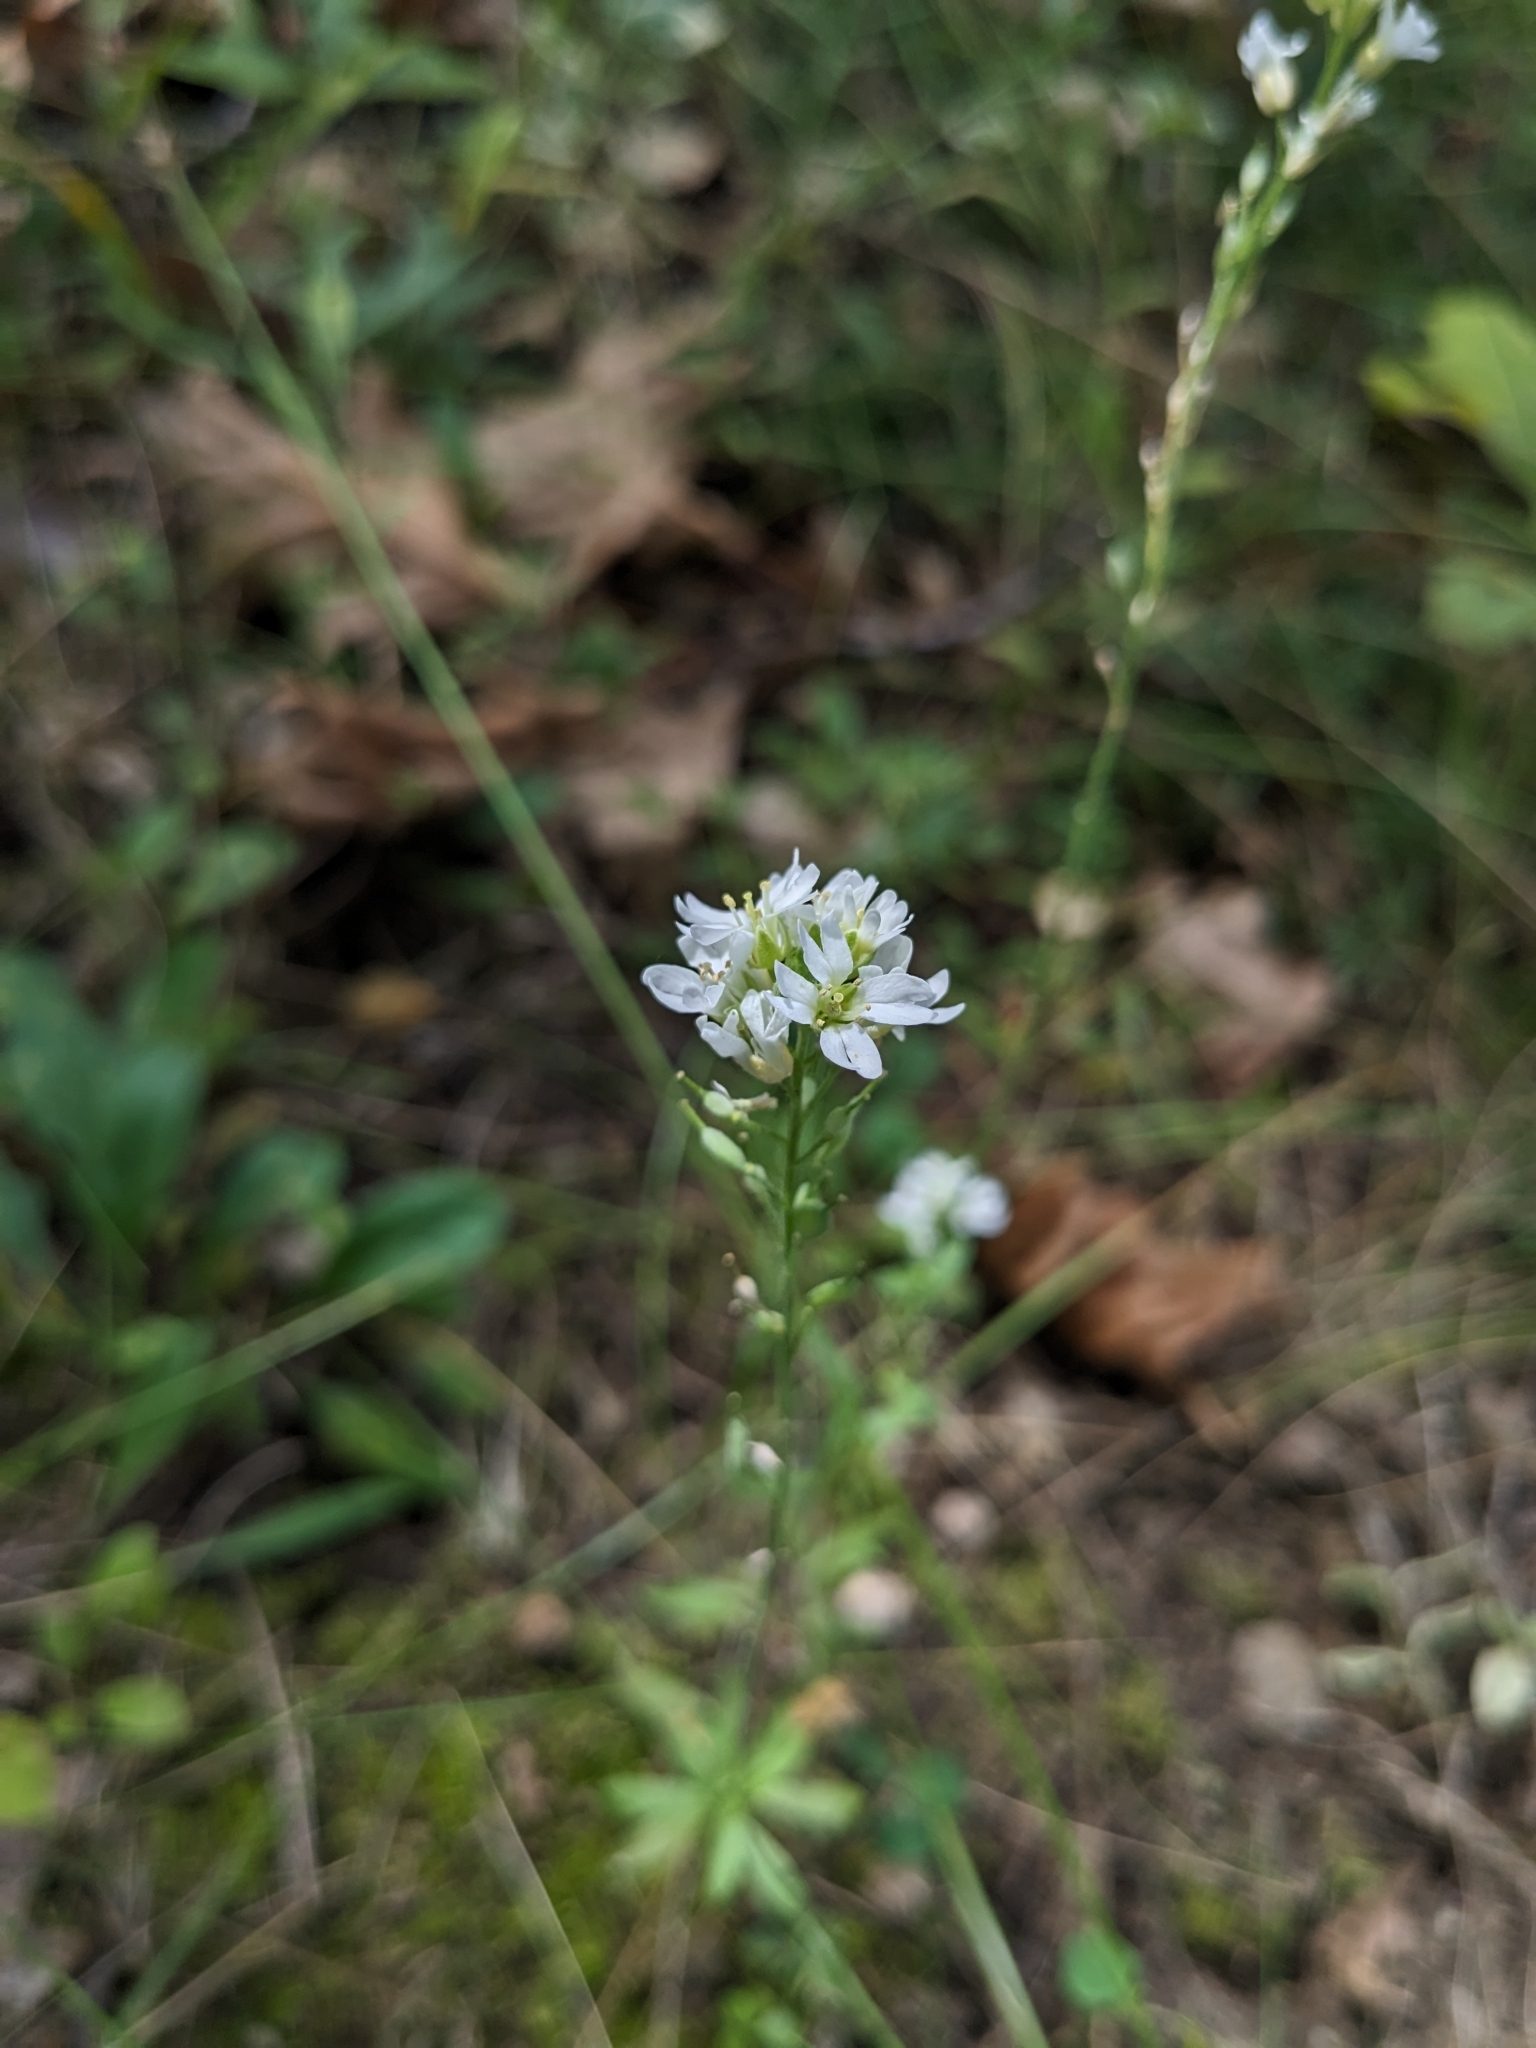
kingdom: Plantae
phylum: Tracheophyta
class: Magnoliopsida
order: Brassicales
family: Brassicaceae
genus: Berteroa
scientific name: Berteroa incana
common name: Hoary alison
